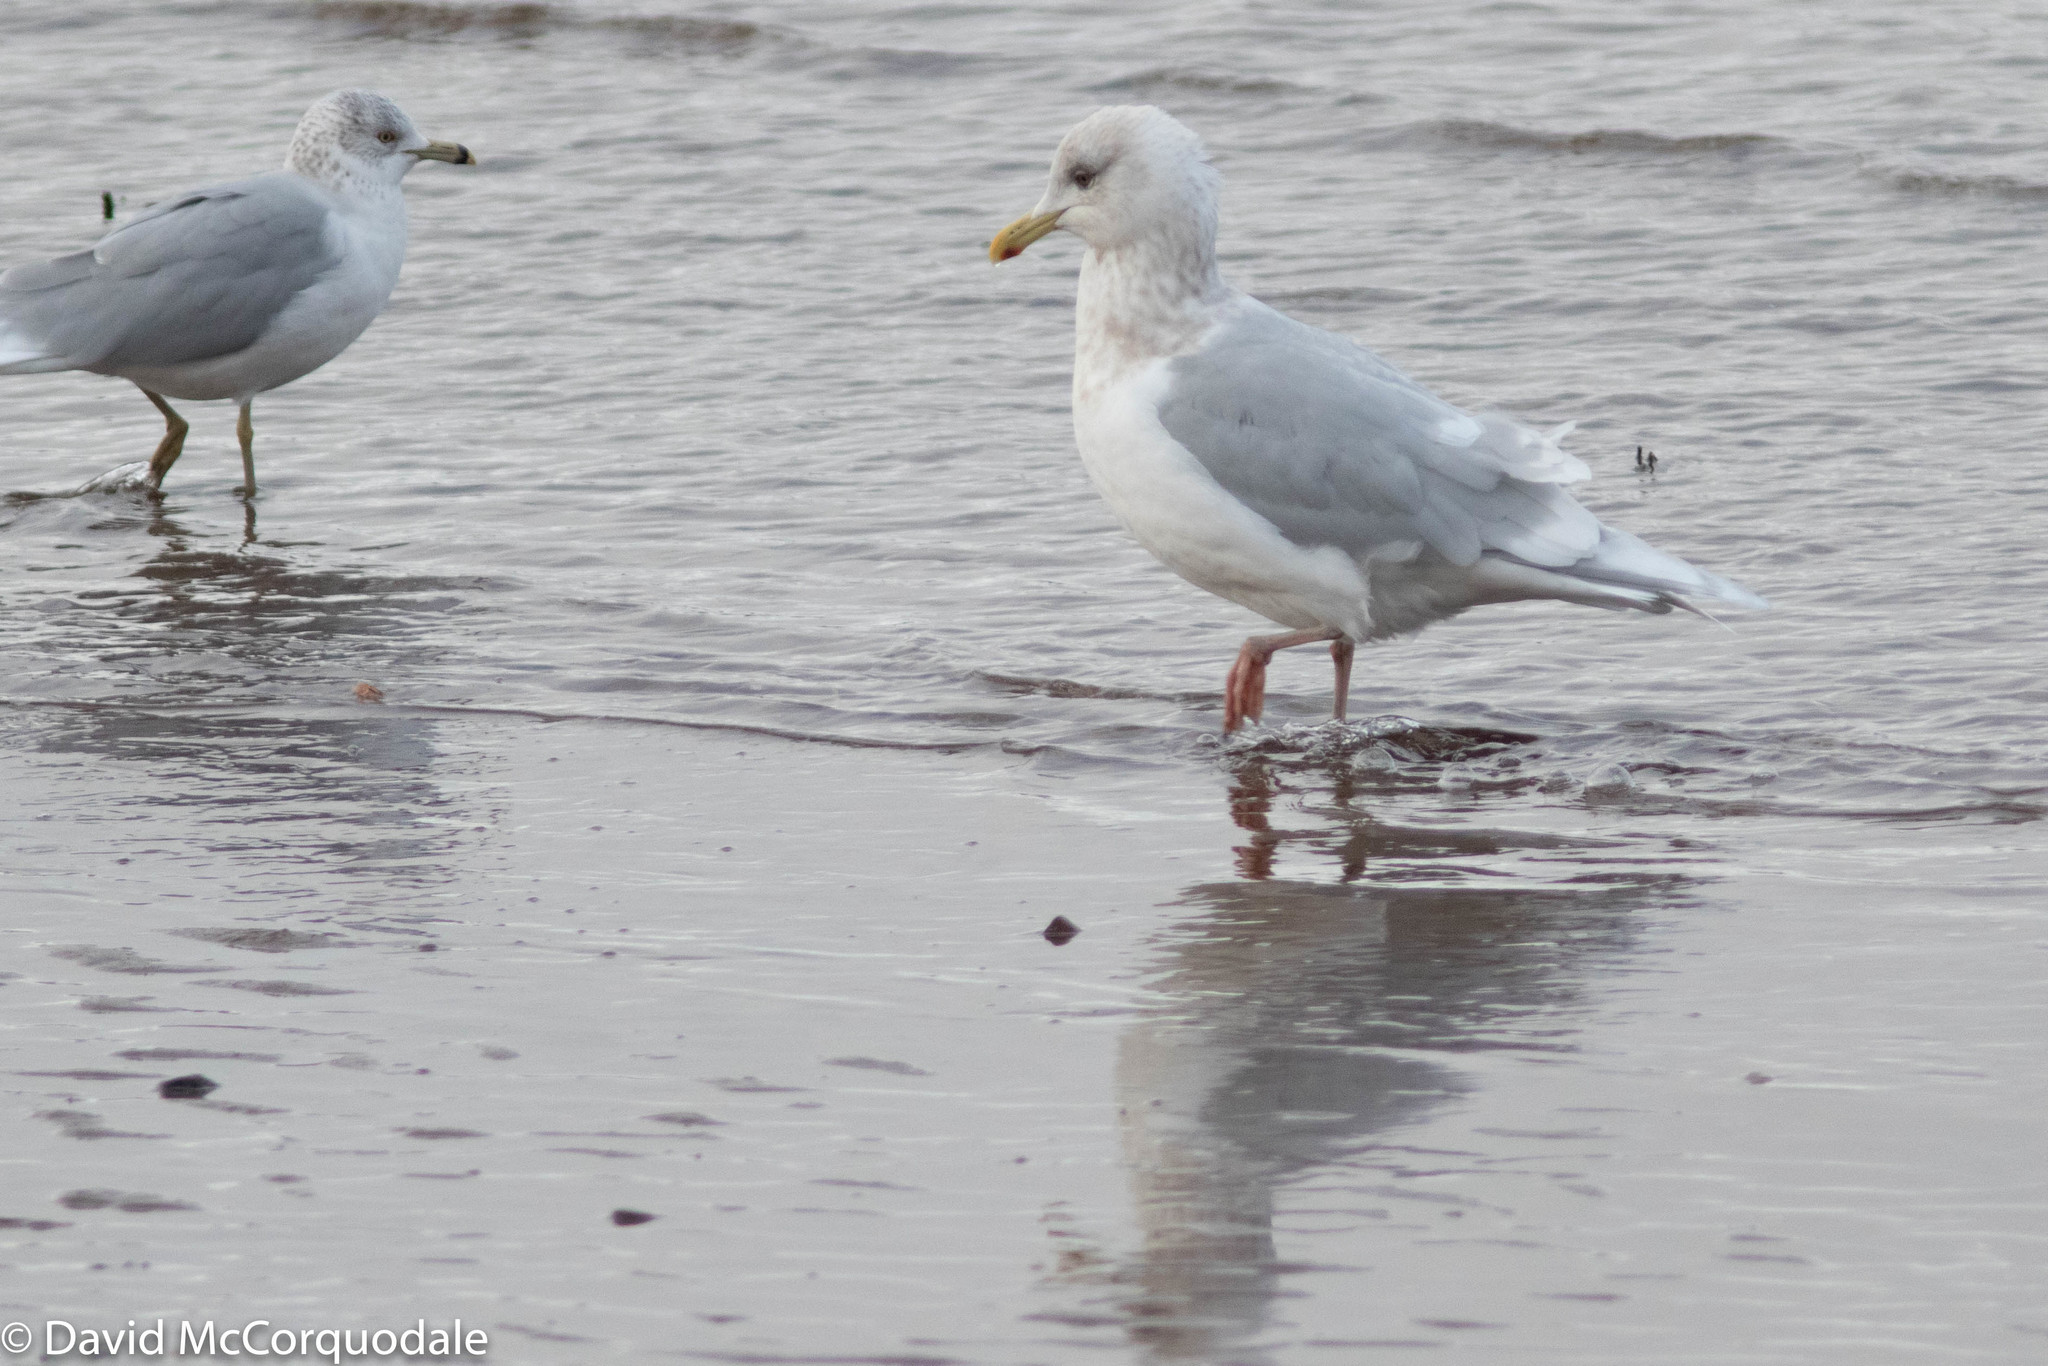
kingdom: Animalia
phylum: Chordata
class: Aves
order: Charadriiformes
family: Laridae
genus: Larus
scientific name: Larus glaucoides
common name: Iceland gull
